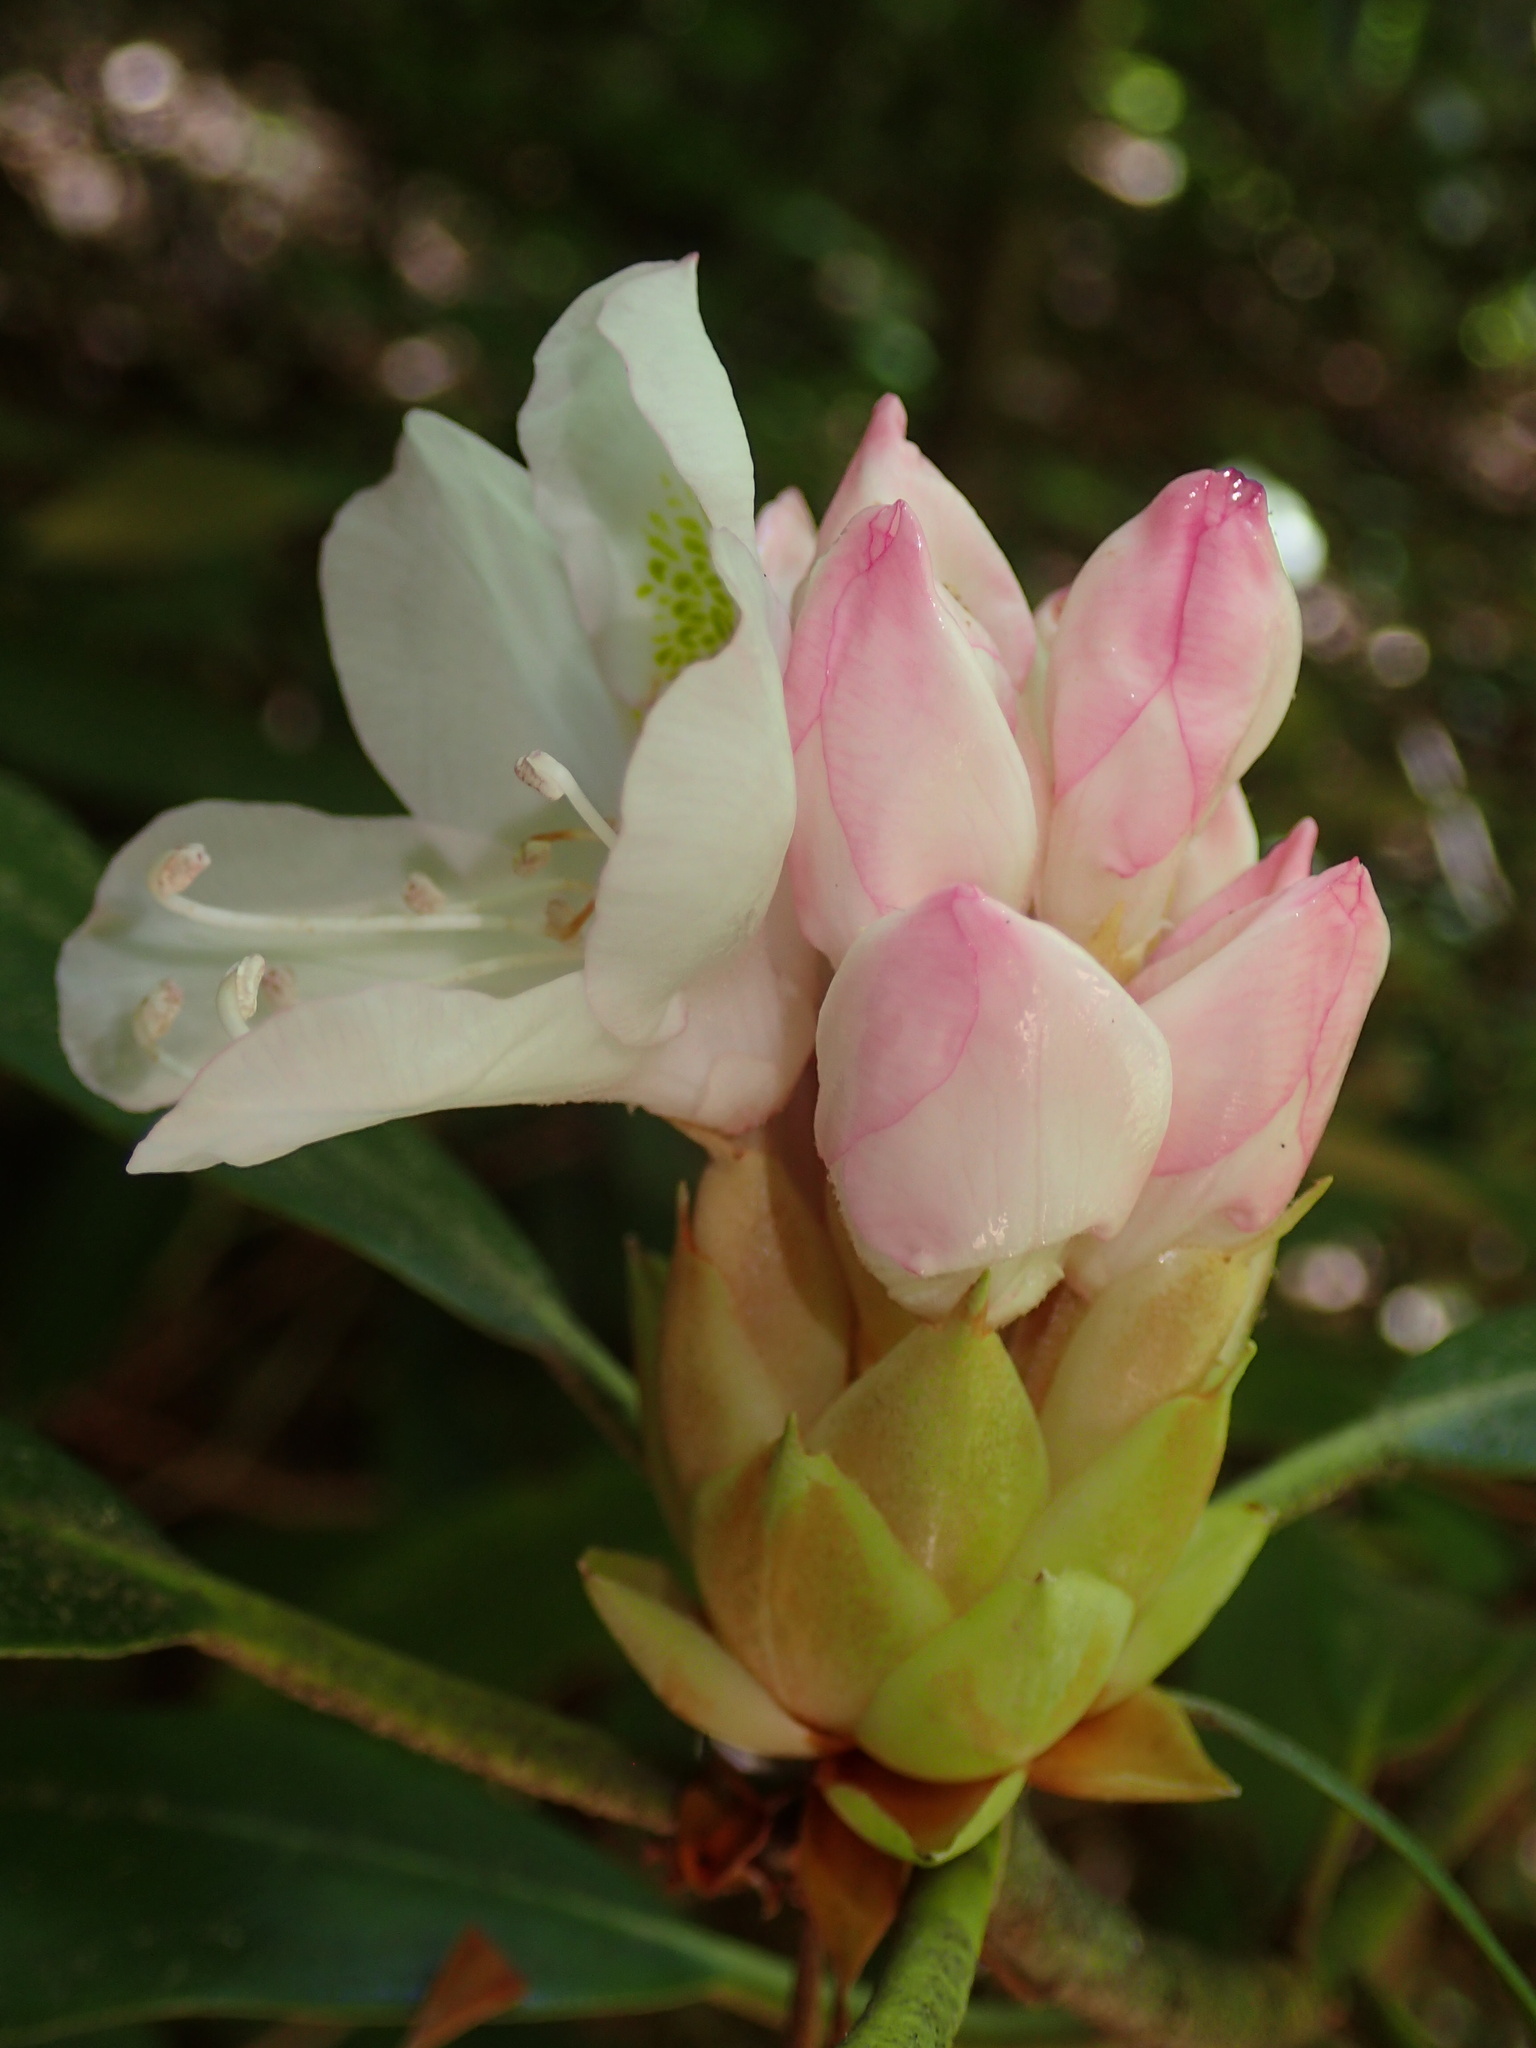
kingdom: Plantae
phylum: Tracheophyta
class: Magnoliopsida
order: Ericales
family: Ericaceae
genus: Rhododendron
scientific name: Rhododendron maximum
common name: Great rhododendron
